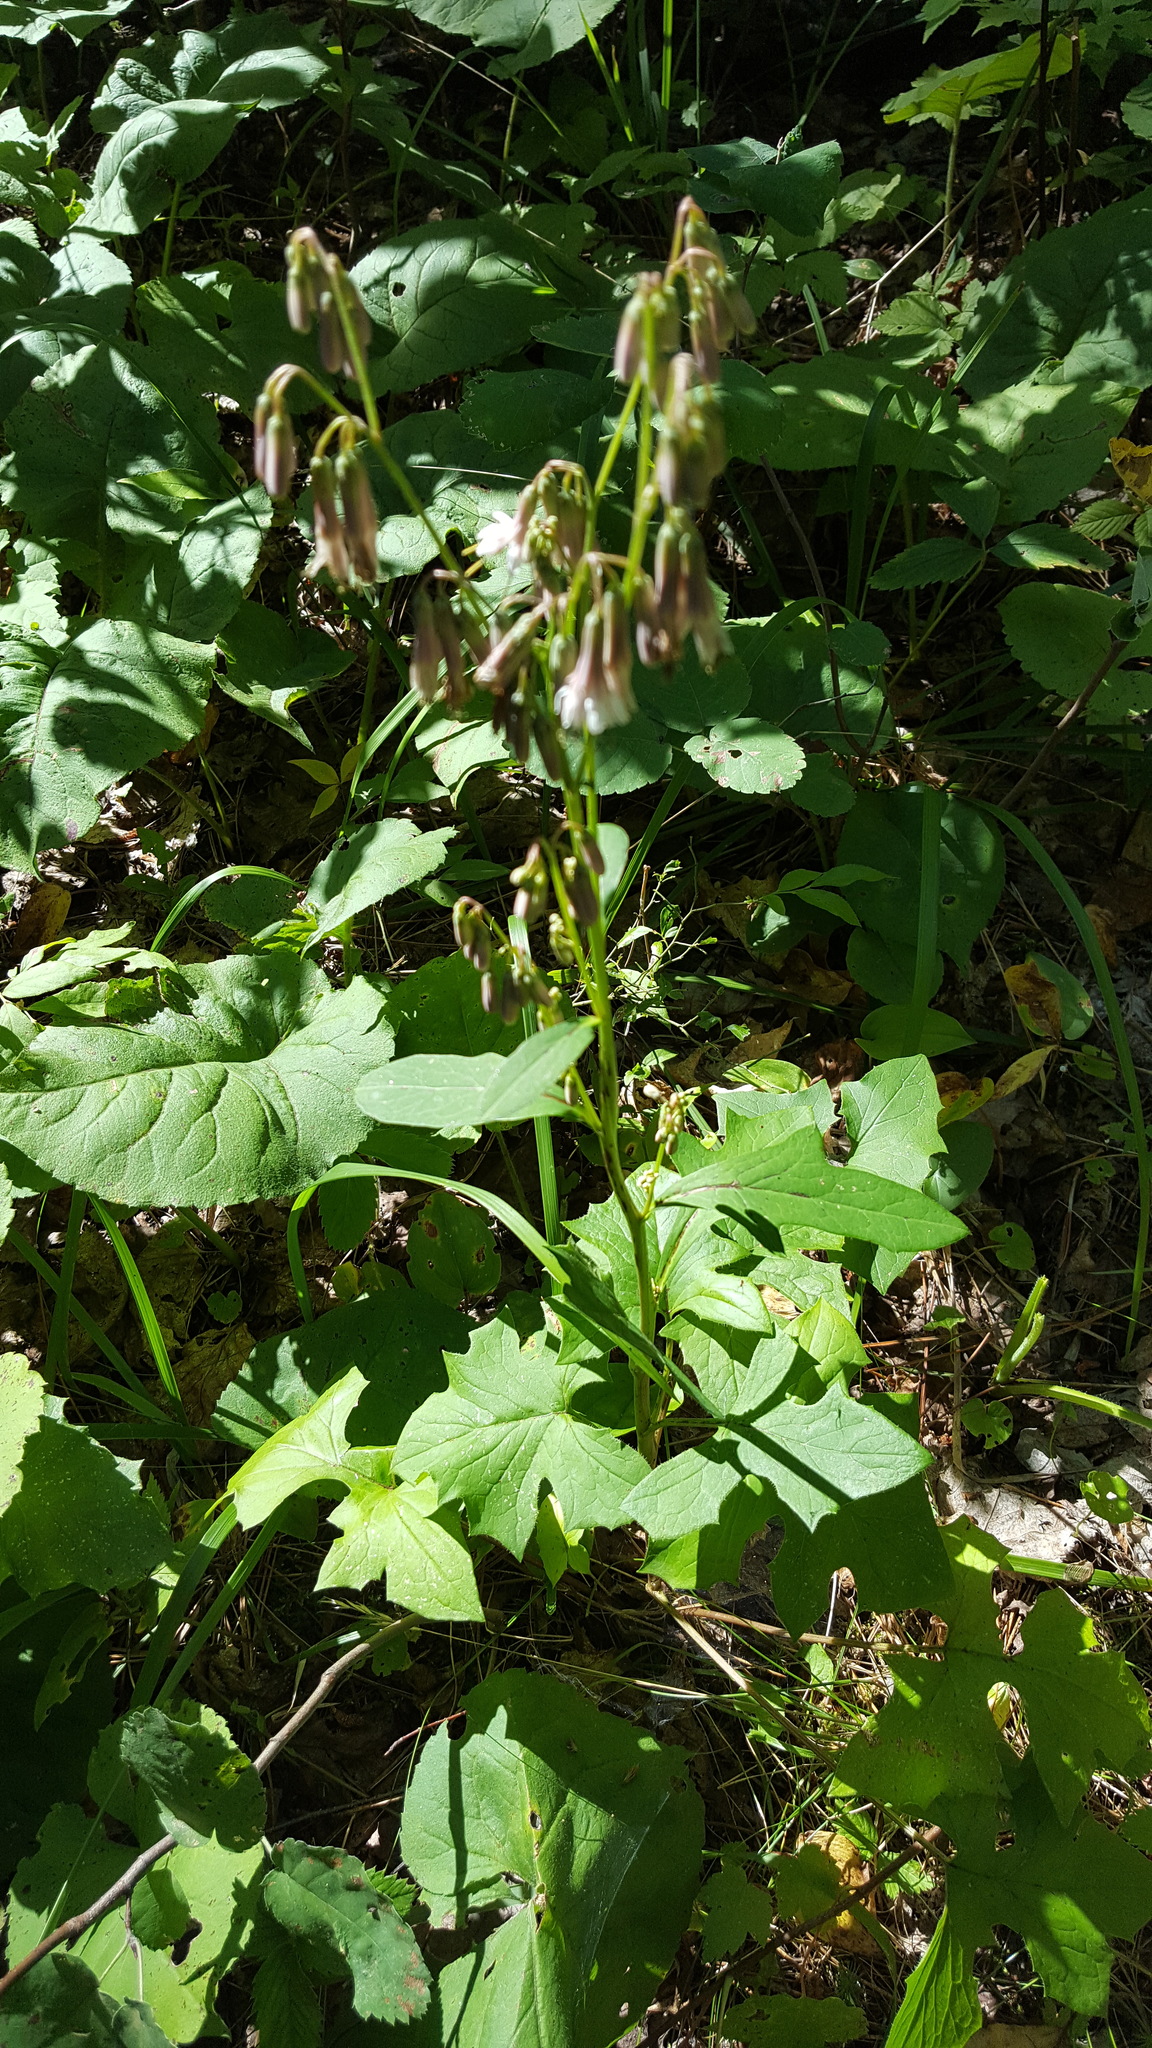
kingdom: Plantae
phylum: Tracheophyta
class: Magnoliopsida
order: Asterales
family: Asteraceae
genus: Nabalus
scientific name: Nabalus albus
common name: White rattlesnakeroot
